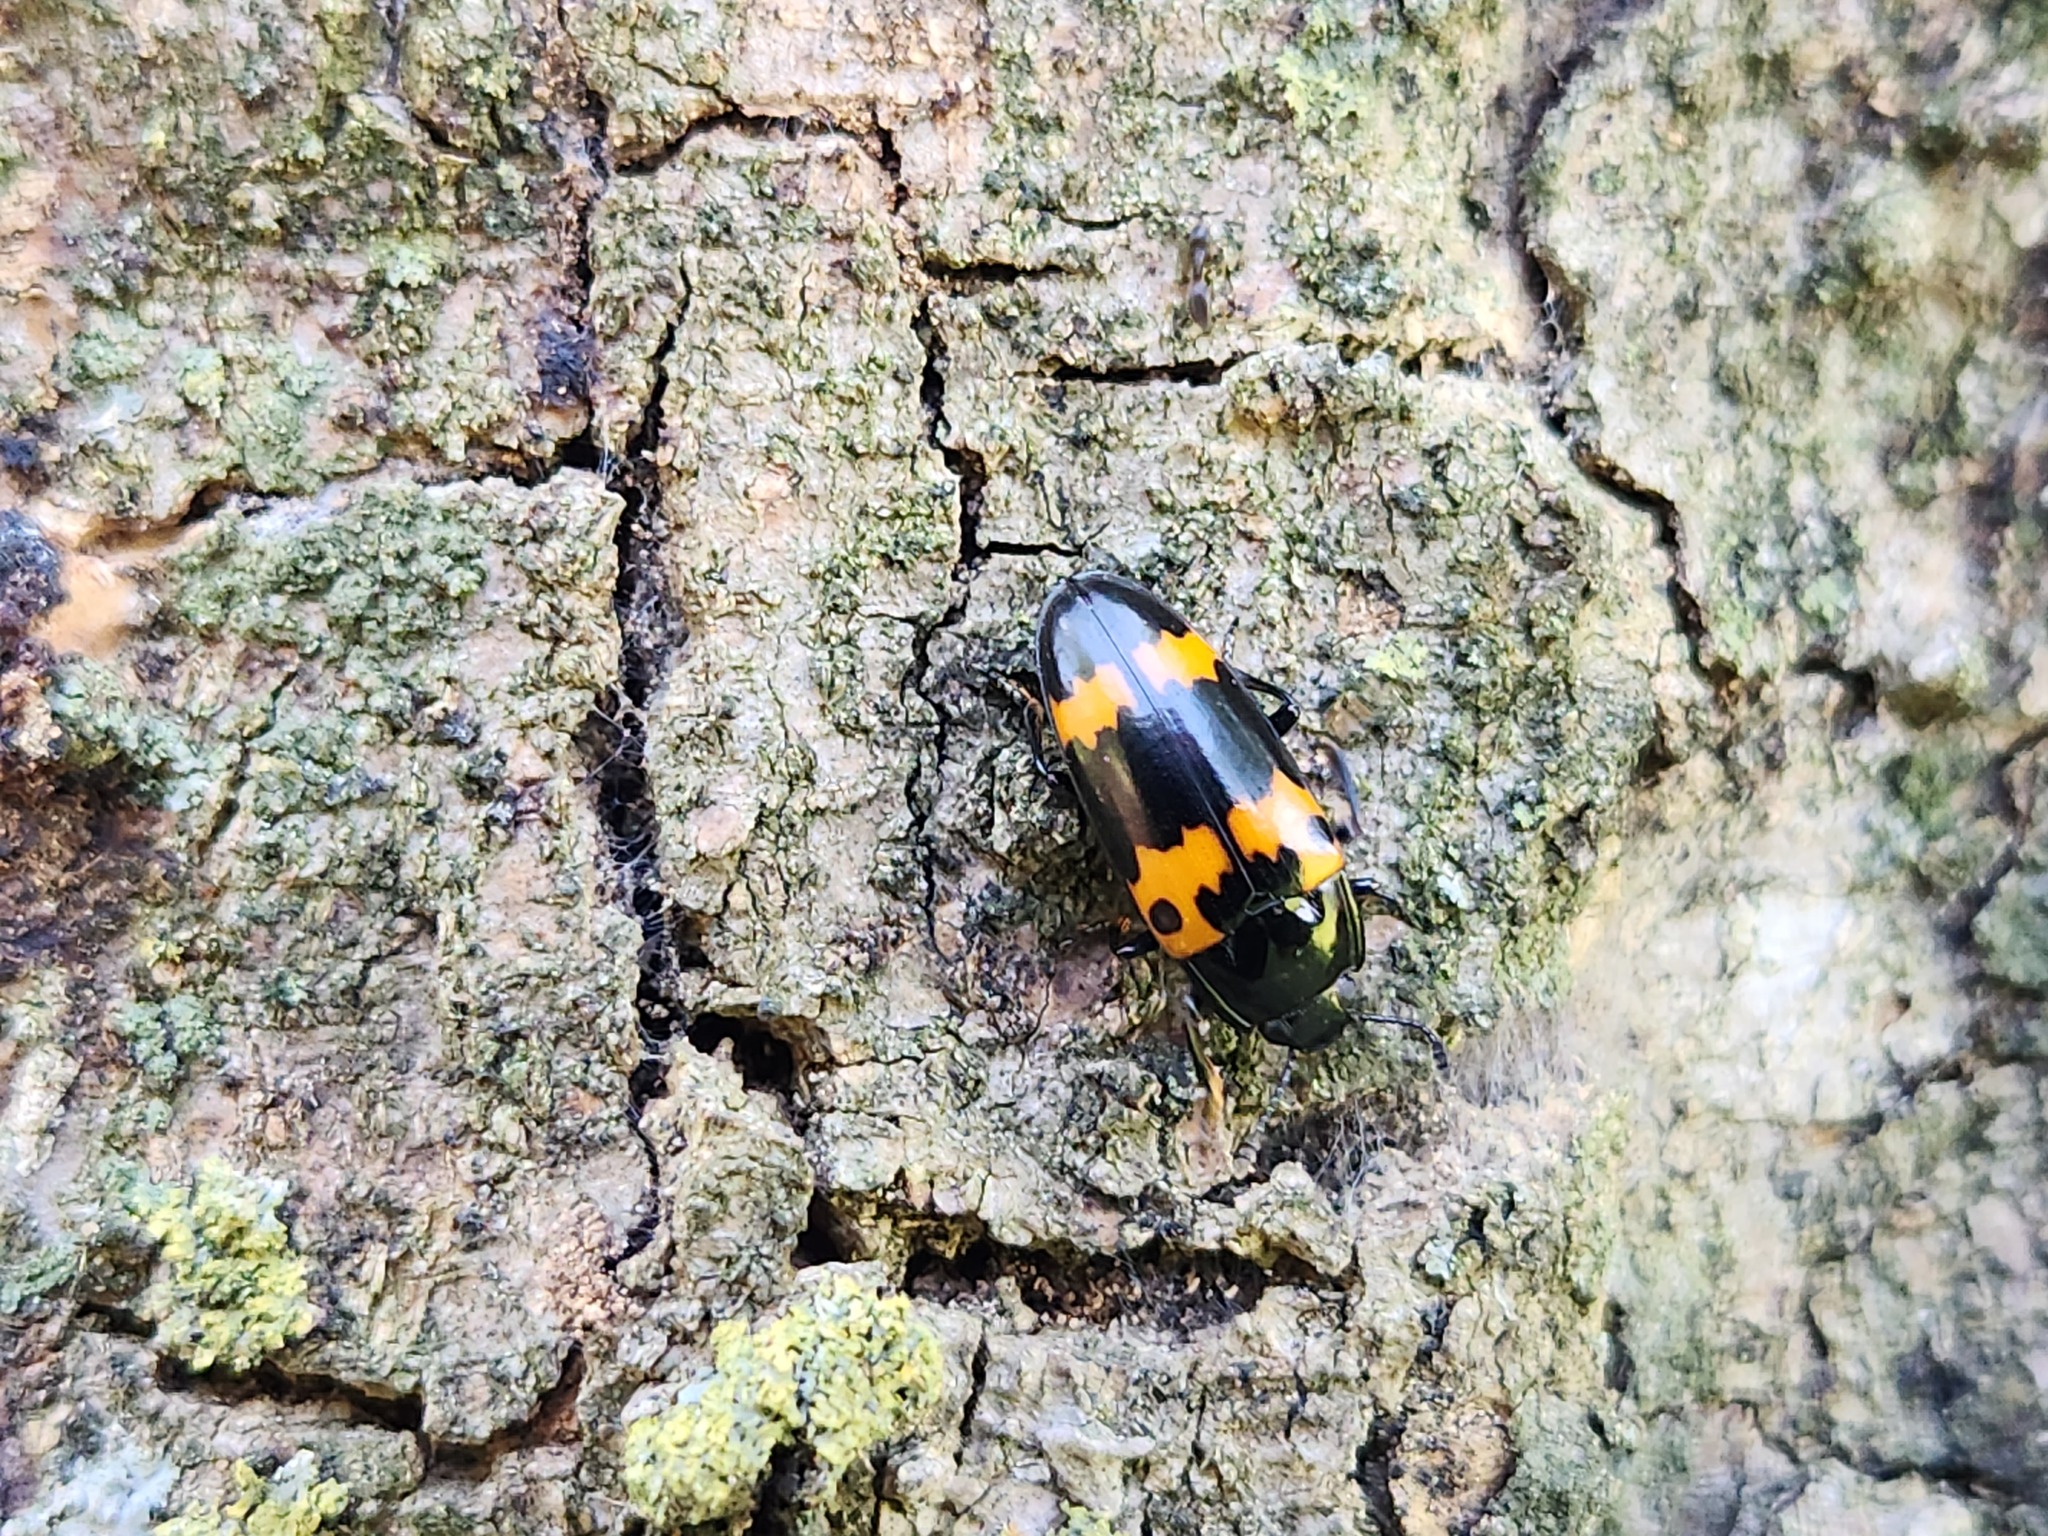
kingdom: Animalia
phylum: Arthropoda
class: Insecta
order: Coleoptera
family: Erotylidae
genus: Megalodacne
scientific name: Megalodacne fasciata
